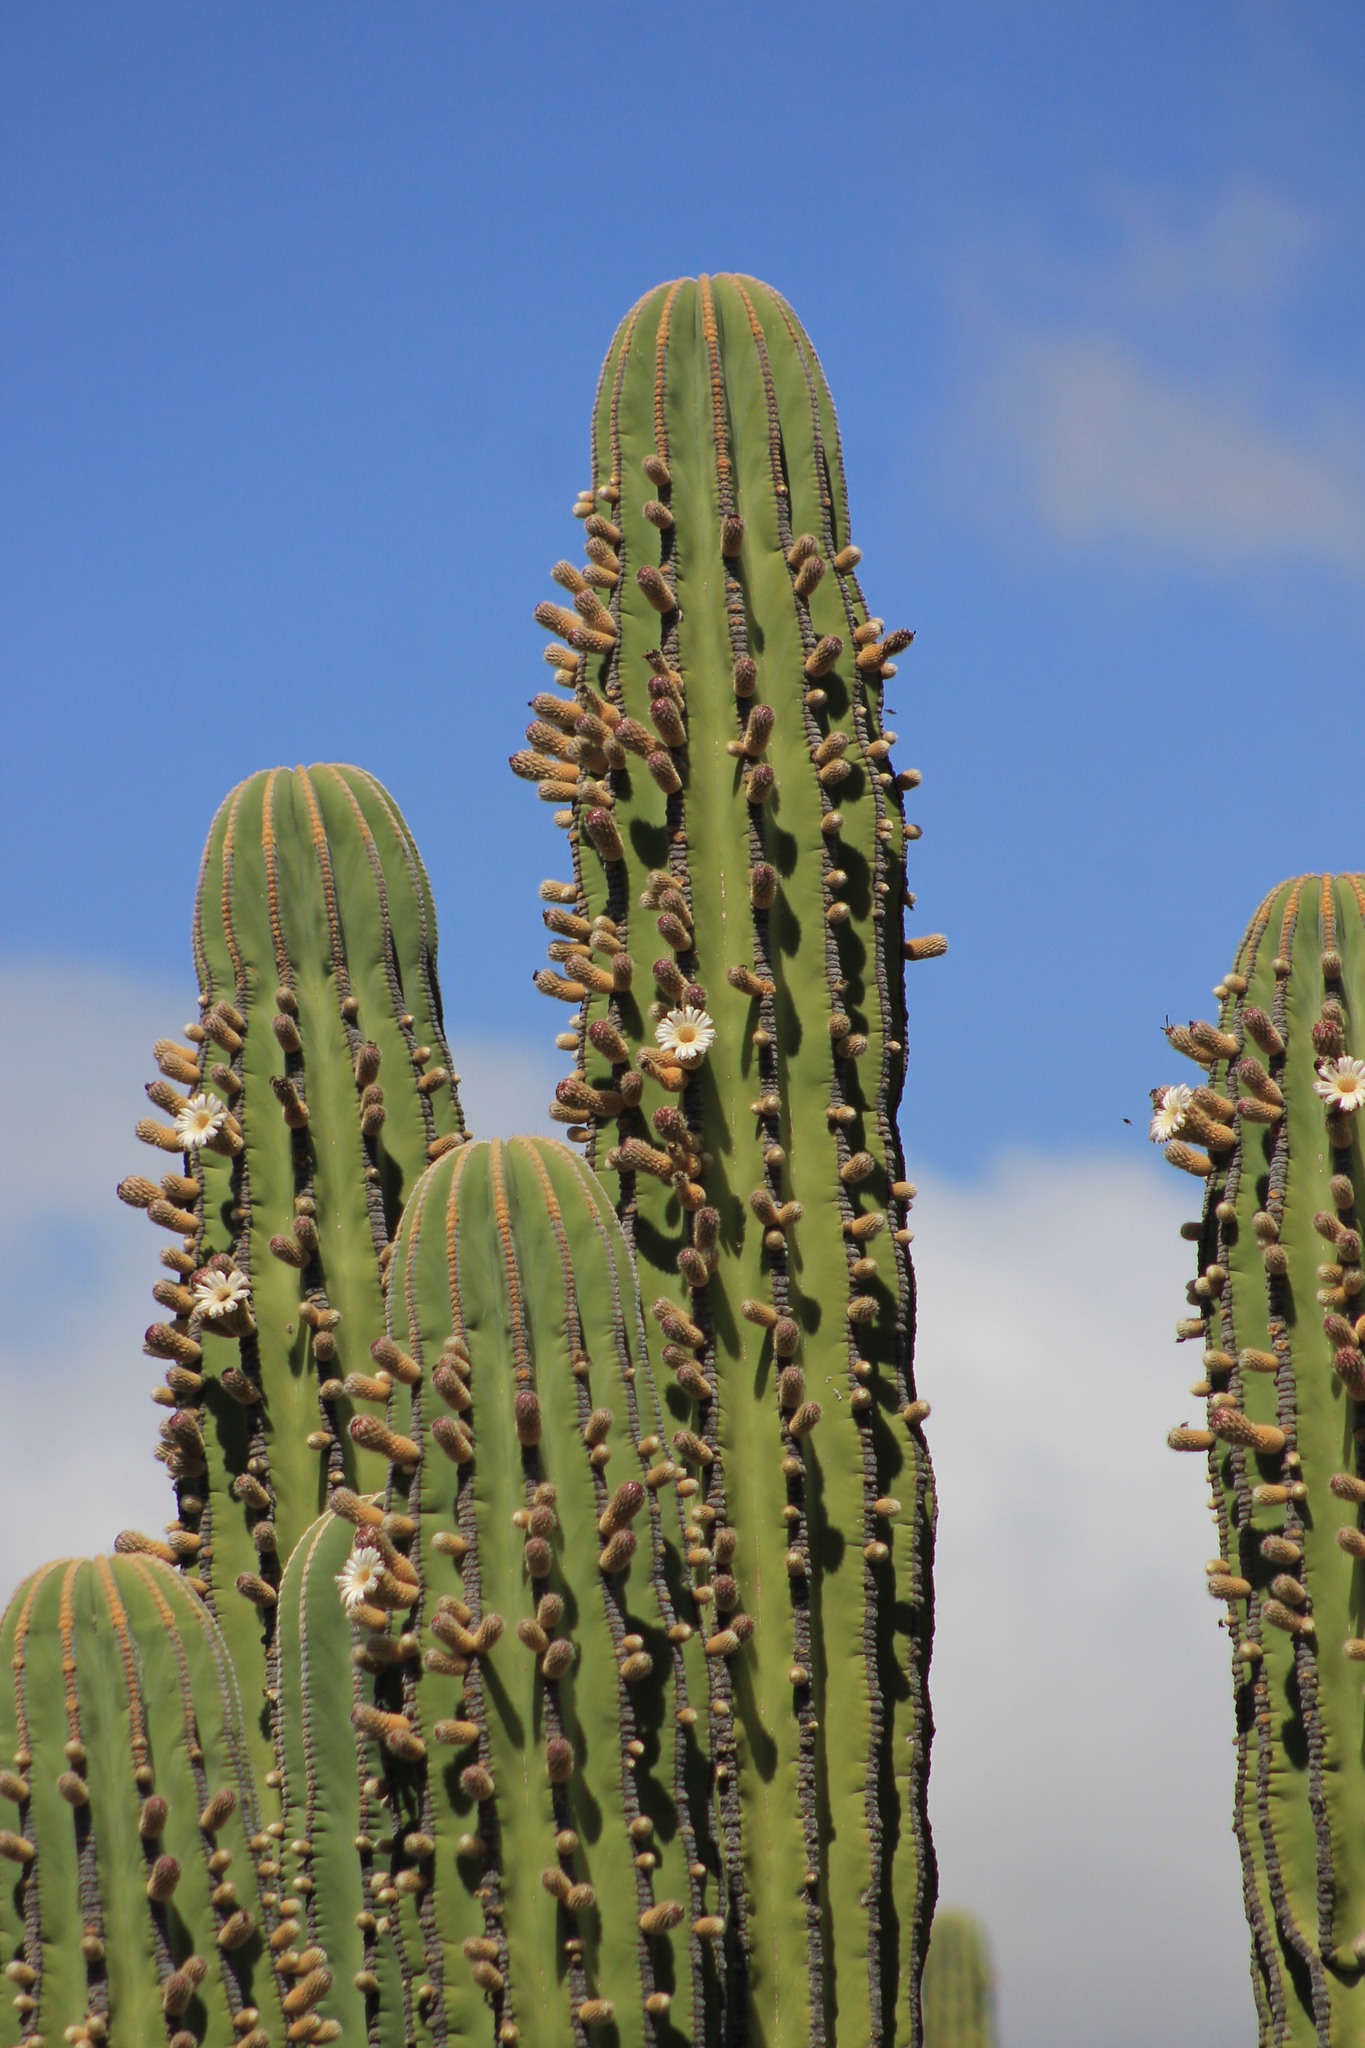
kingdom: Plantae
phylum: Tracheophyta
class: Magnoliopsida
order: Caryophyllales
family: Cactaceae
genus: Pachycereus
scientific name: Pachycereus pringlei
